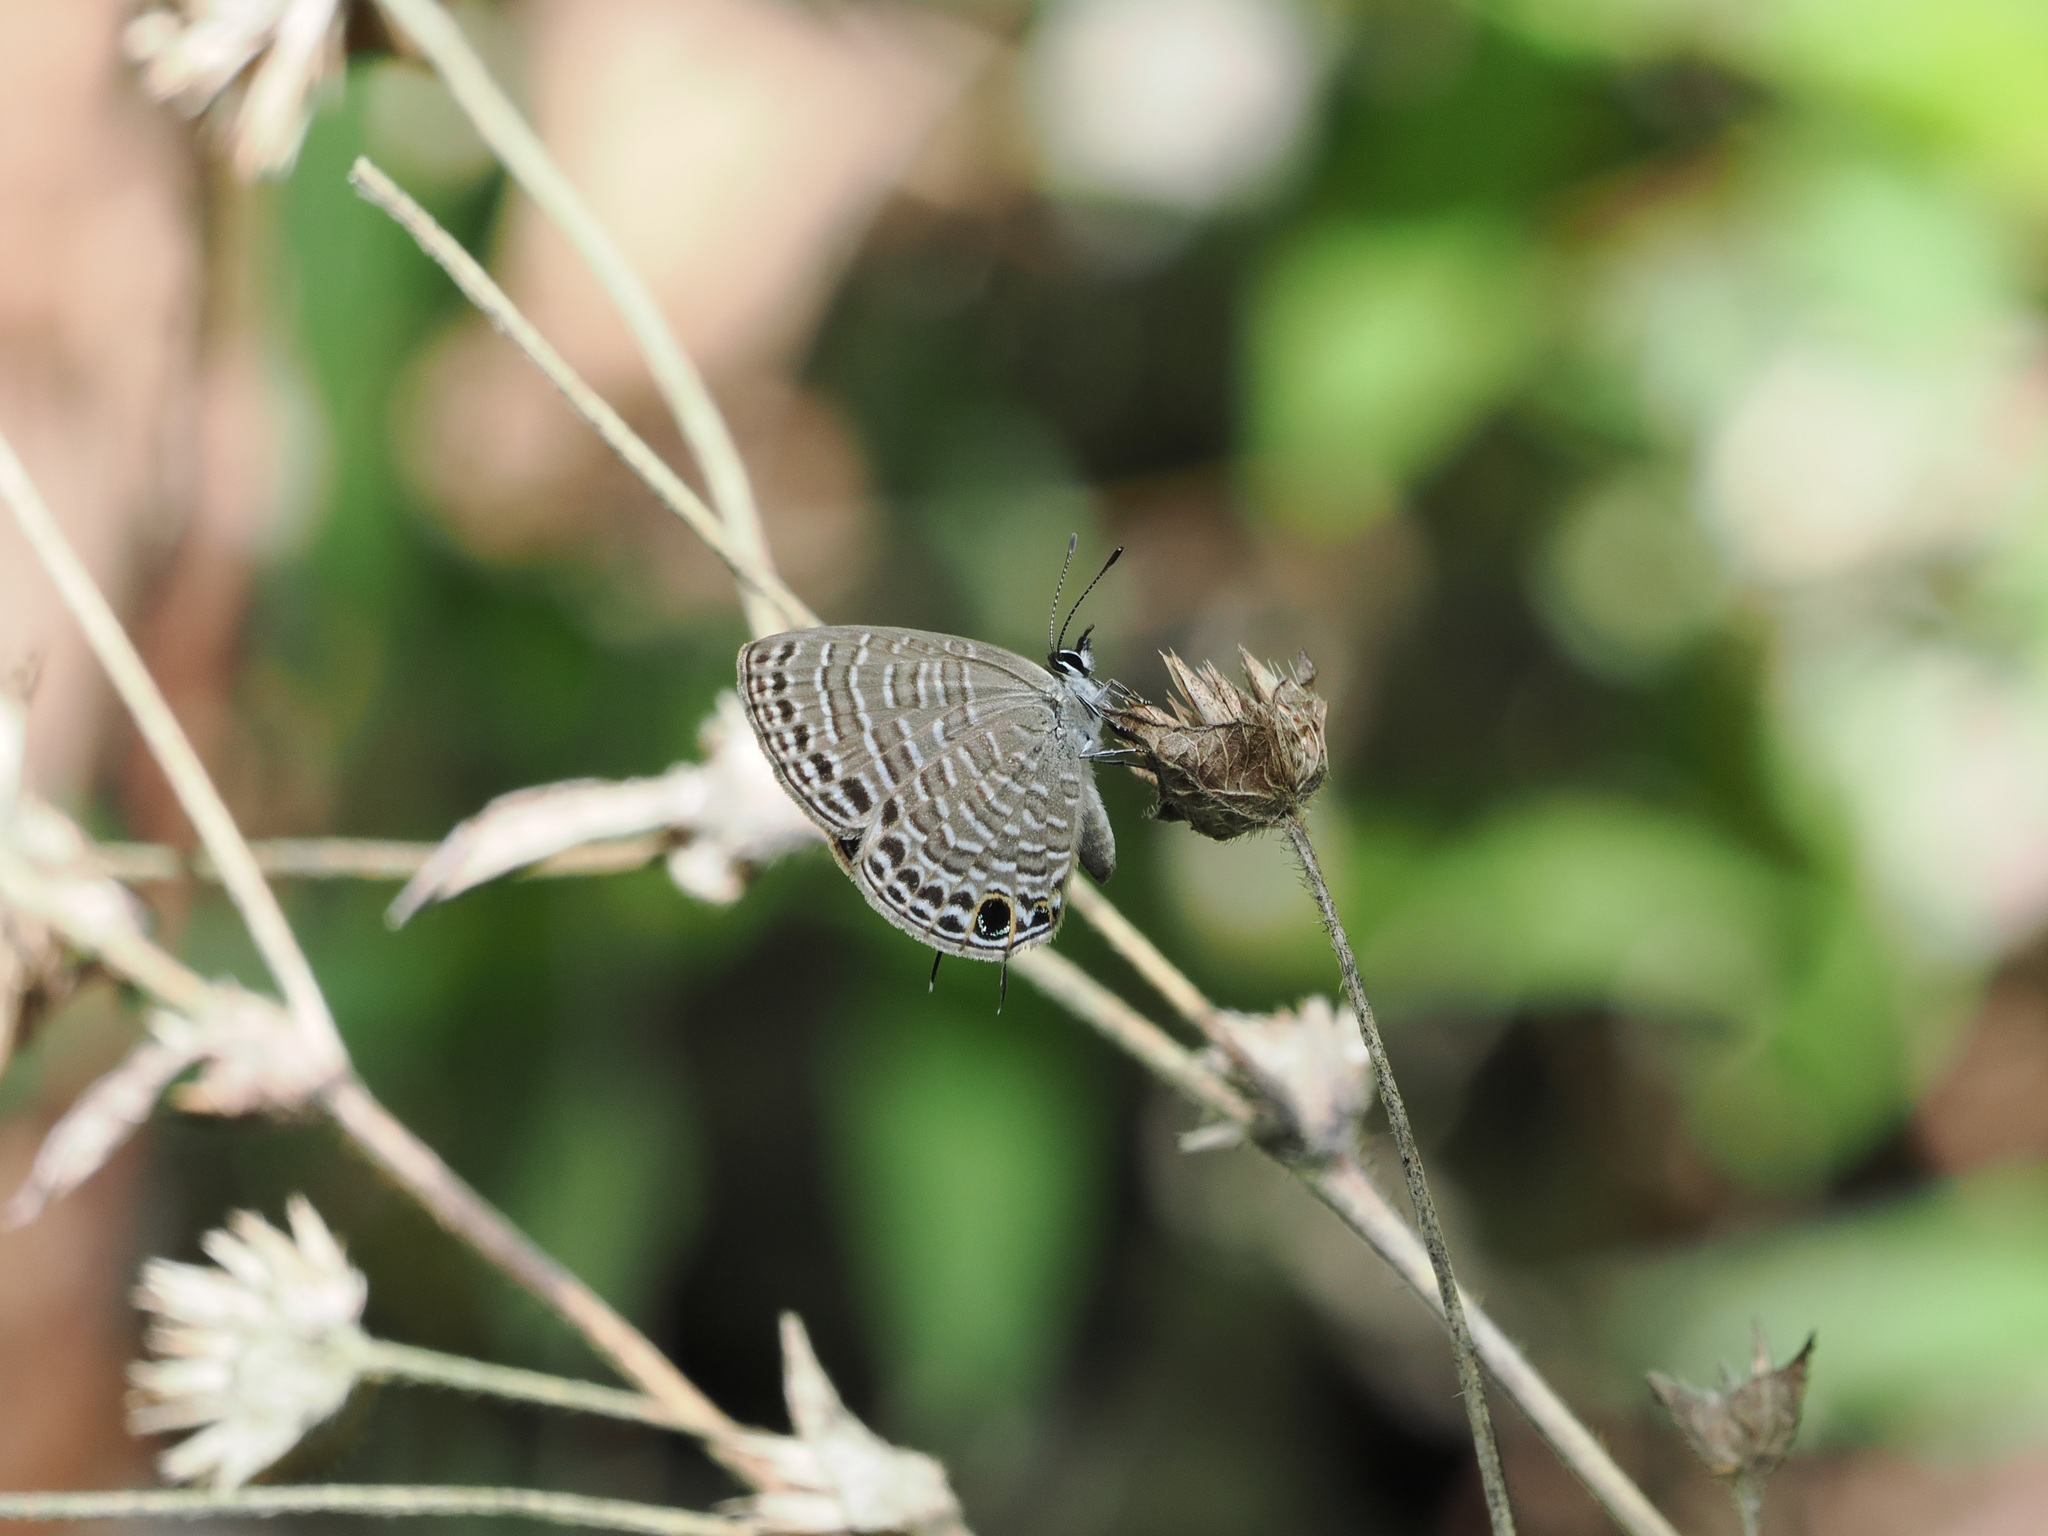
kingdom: Animalia
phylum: Arthropoda
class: Insecta
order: Lepidoptera
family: Lycaenidae
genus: Nacaduba
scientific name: Nacaduba berenice
